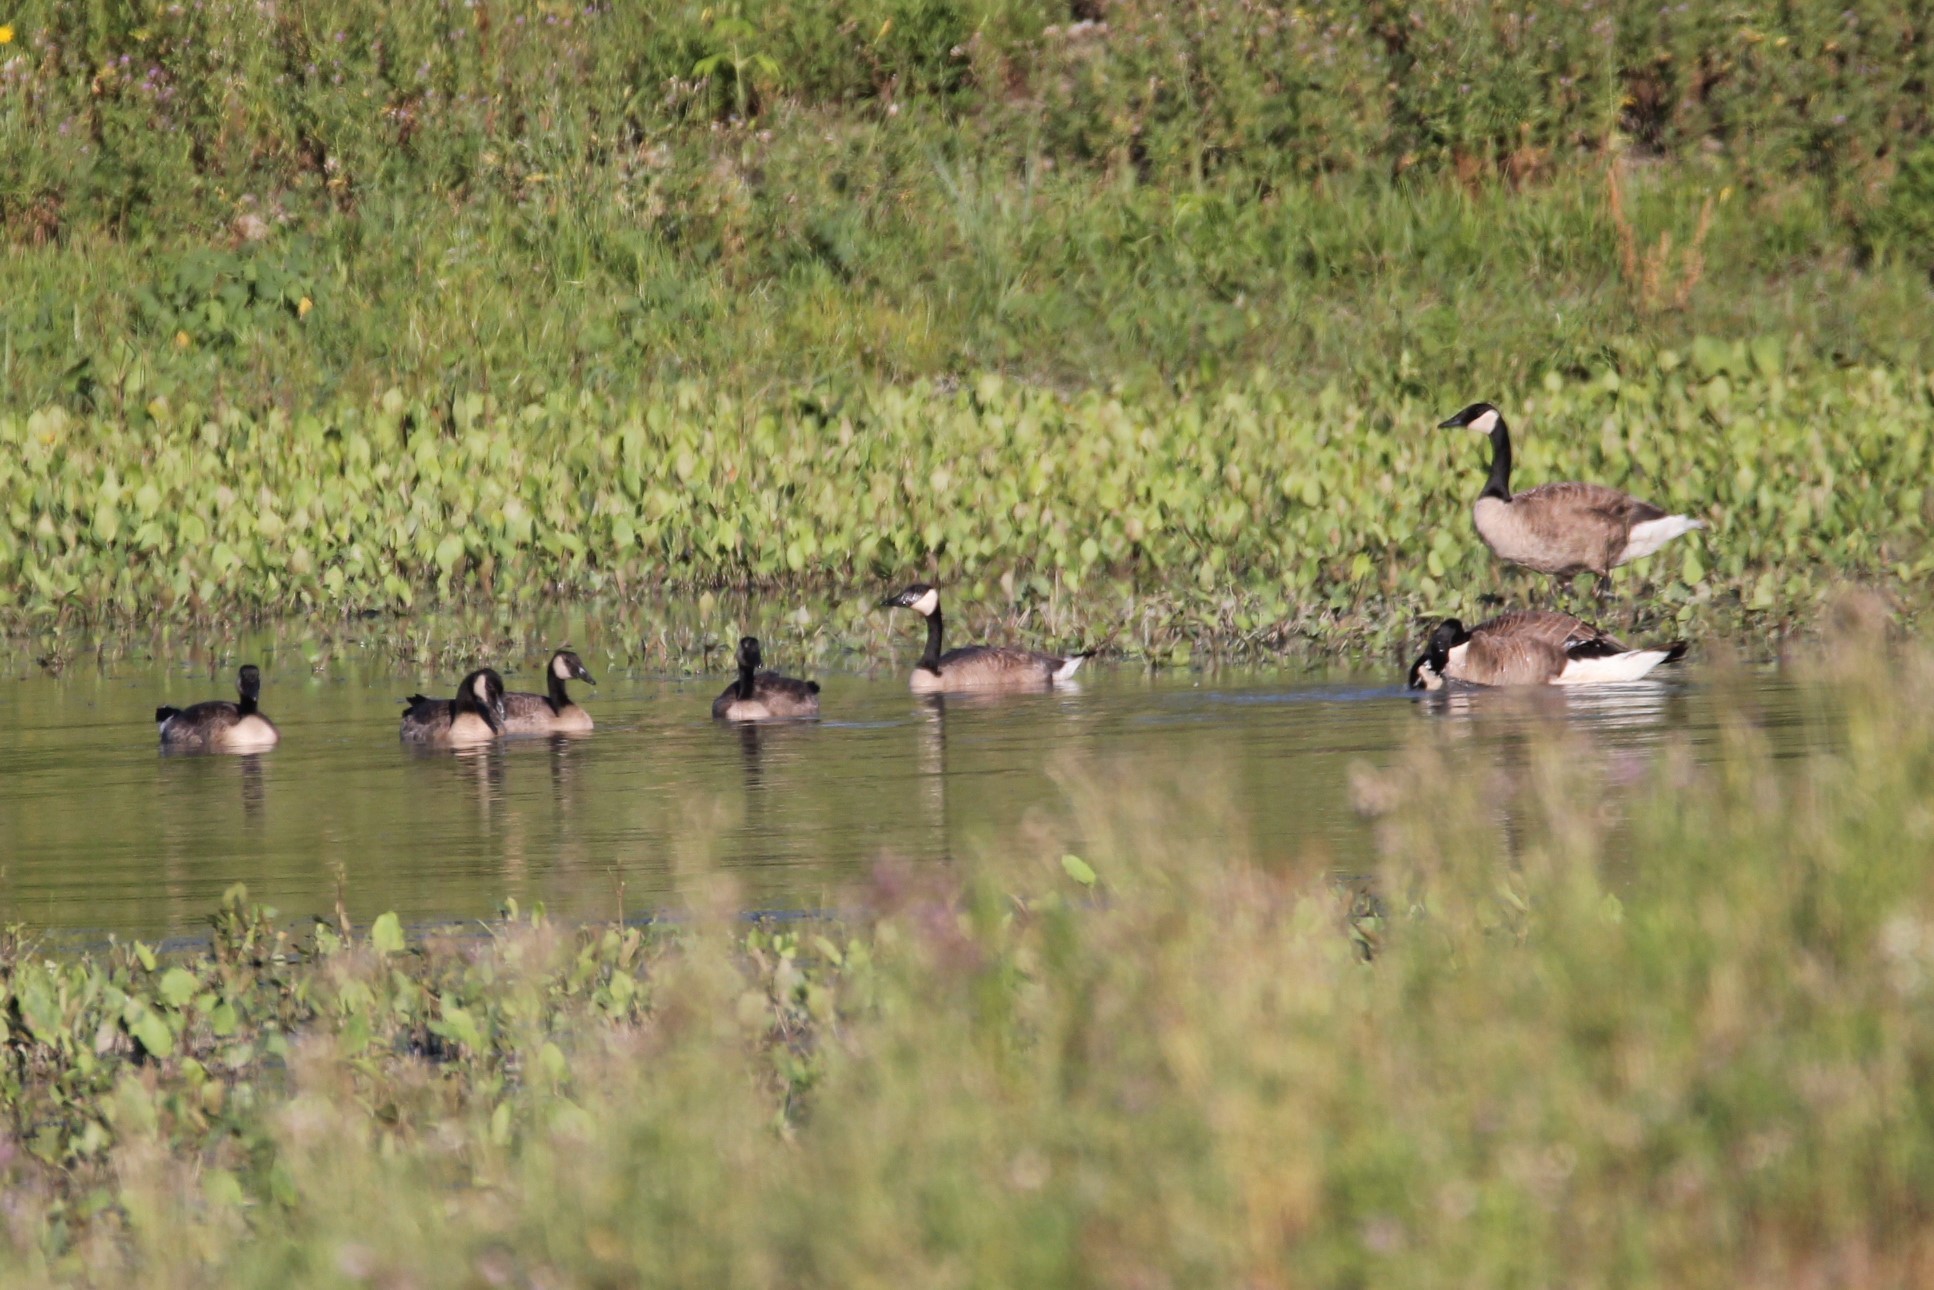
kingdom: Animalia
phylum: Chordata
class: Aves
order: Anseriformes
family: Anatidae
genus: Branta
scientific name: Branta canadensis
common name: Canada goose
